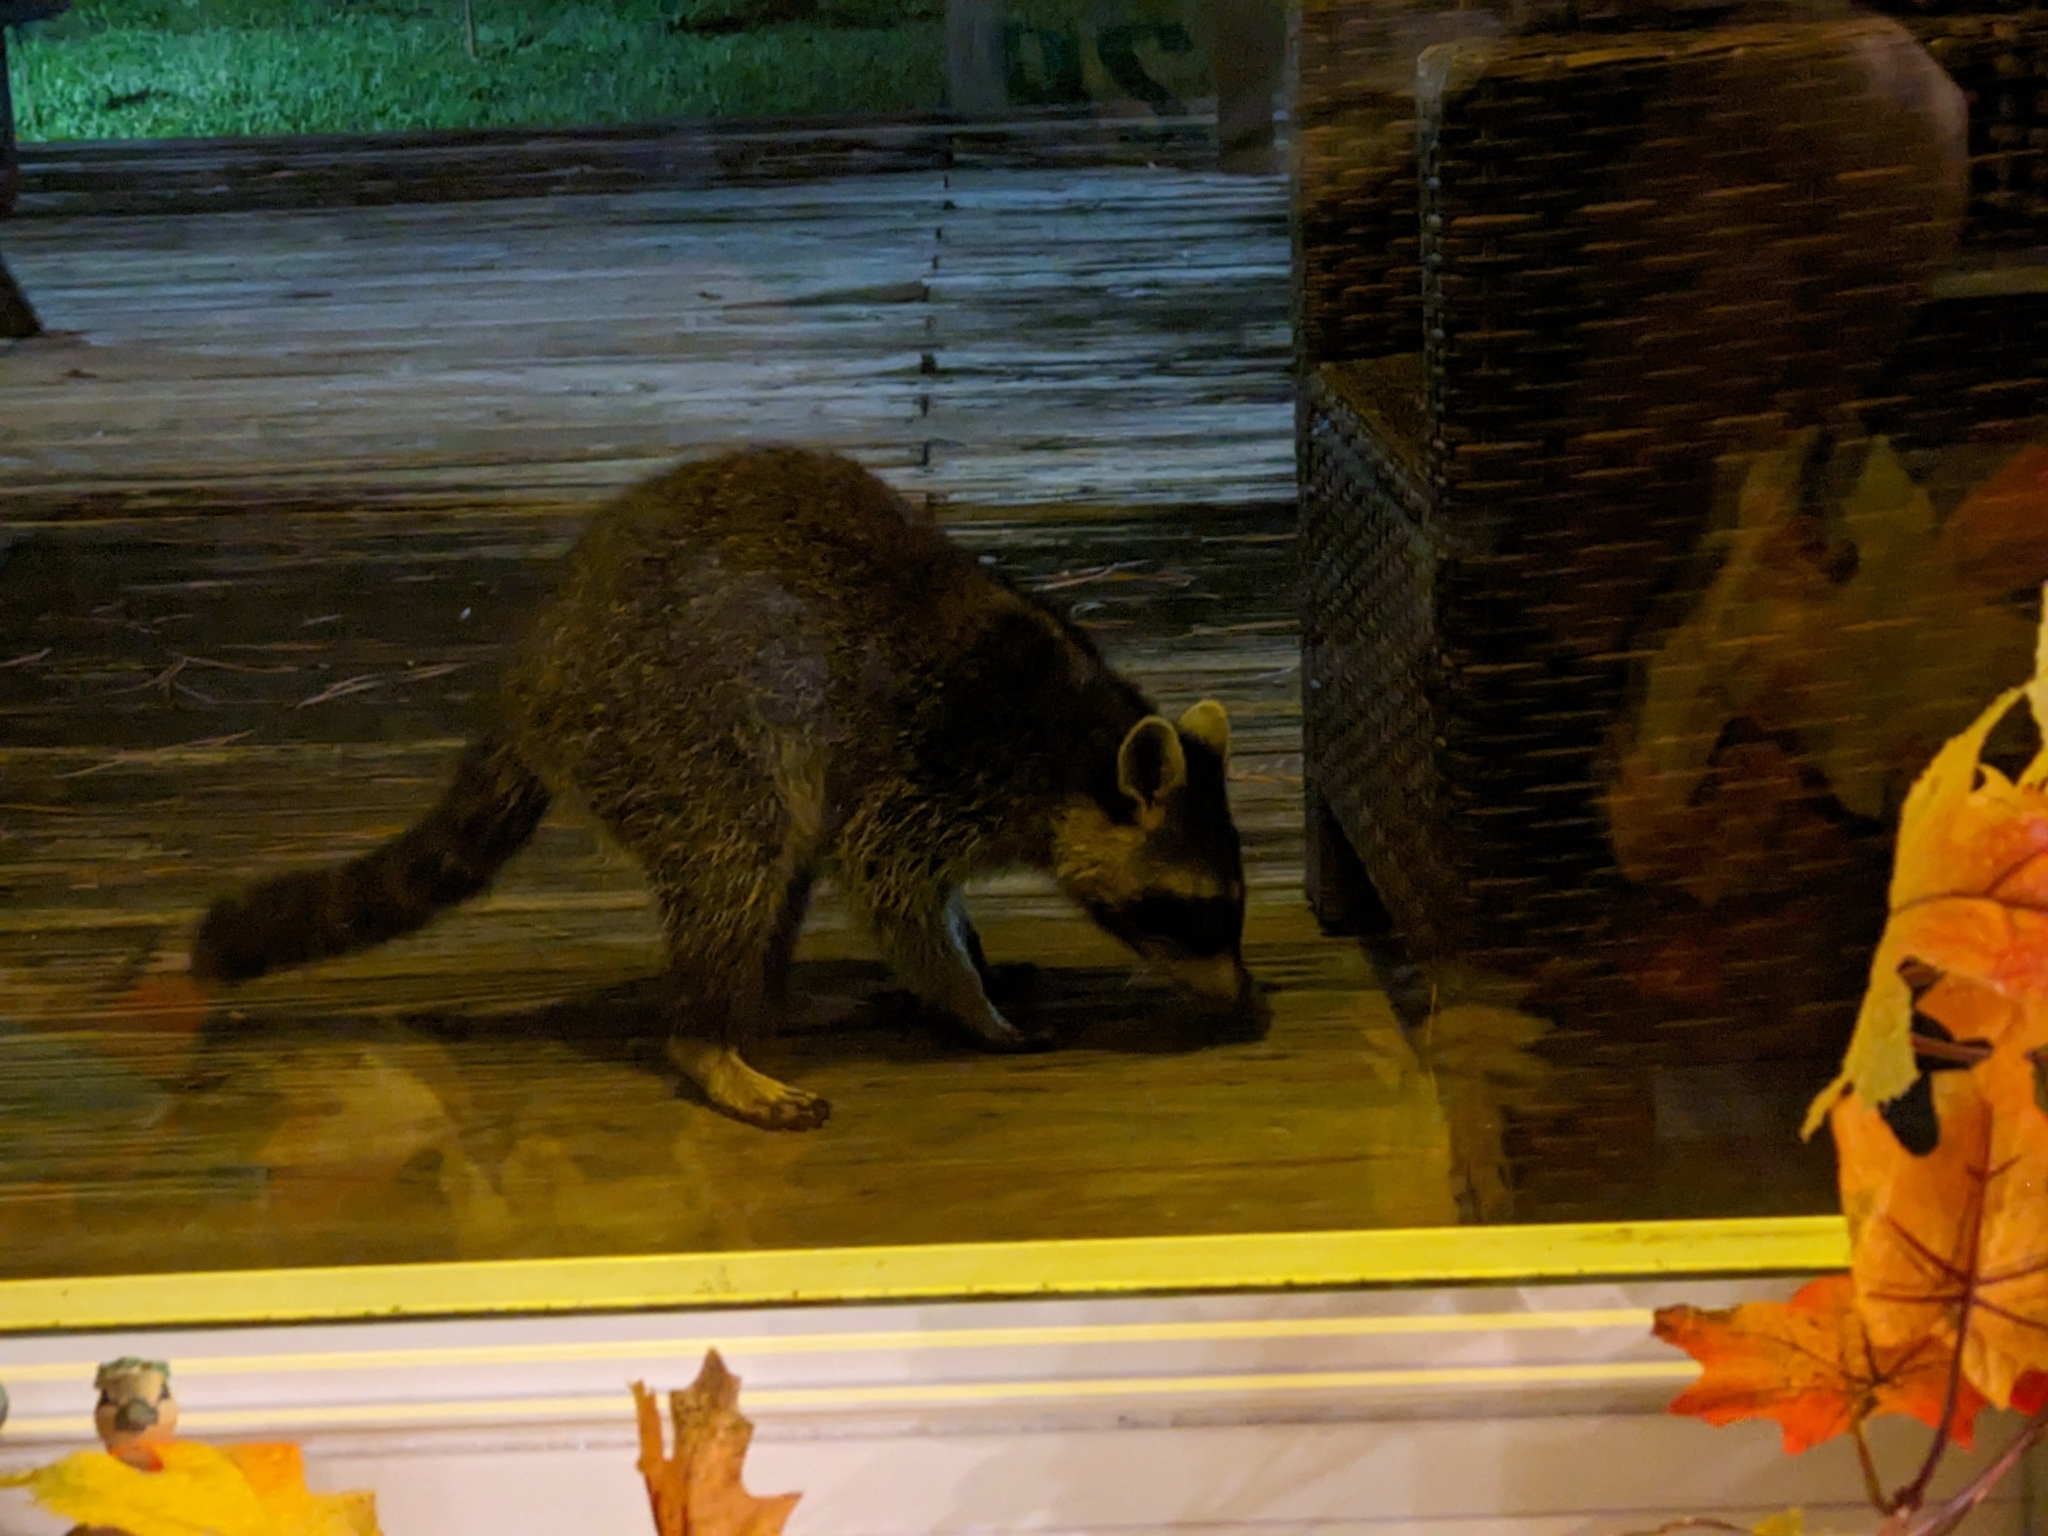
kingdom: Animalia
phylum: Chordata
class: Mammalia
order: Carnivora
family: Procyonidae
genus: Procyon
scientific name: Procyon lotor
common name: Raccoon
